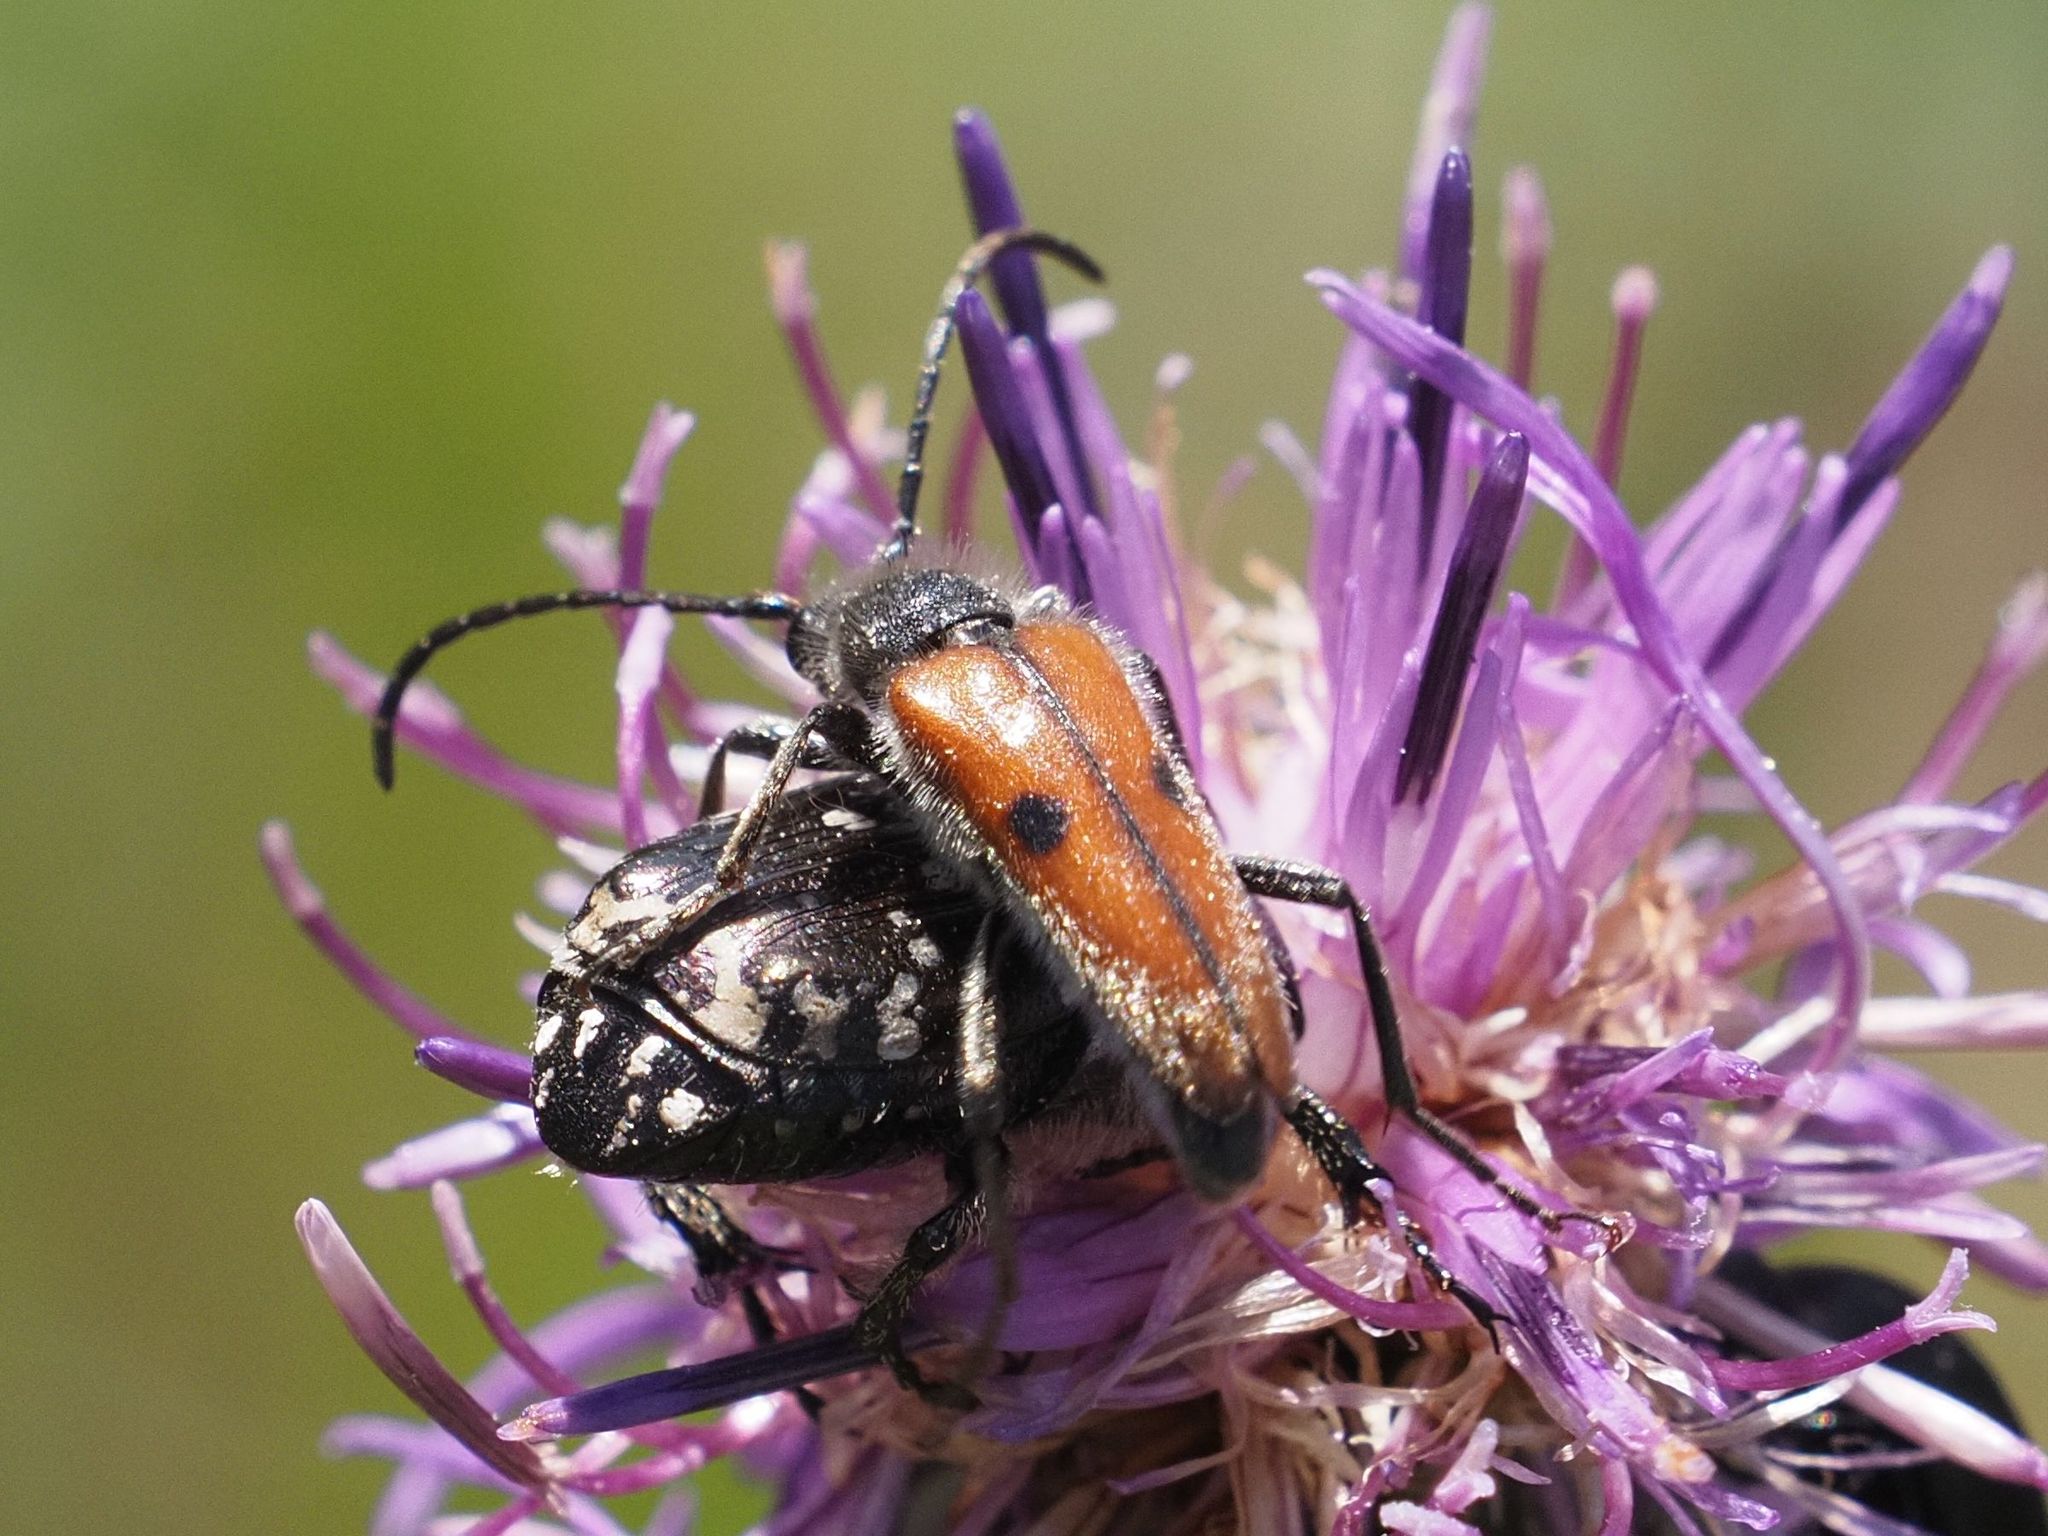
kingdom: Animalia
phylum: Arthropoda
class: Insecta
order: Coleoptera
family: Cerambycidae
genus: Vadonia
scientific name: Vadonia unipunctata
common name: Long-horned beetle
